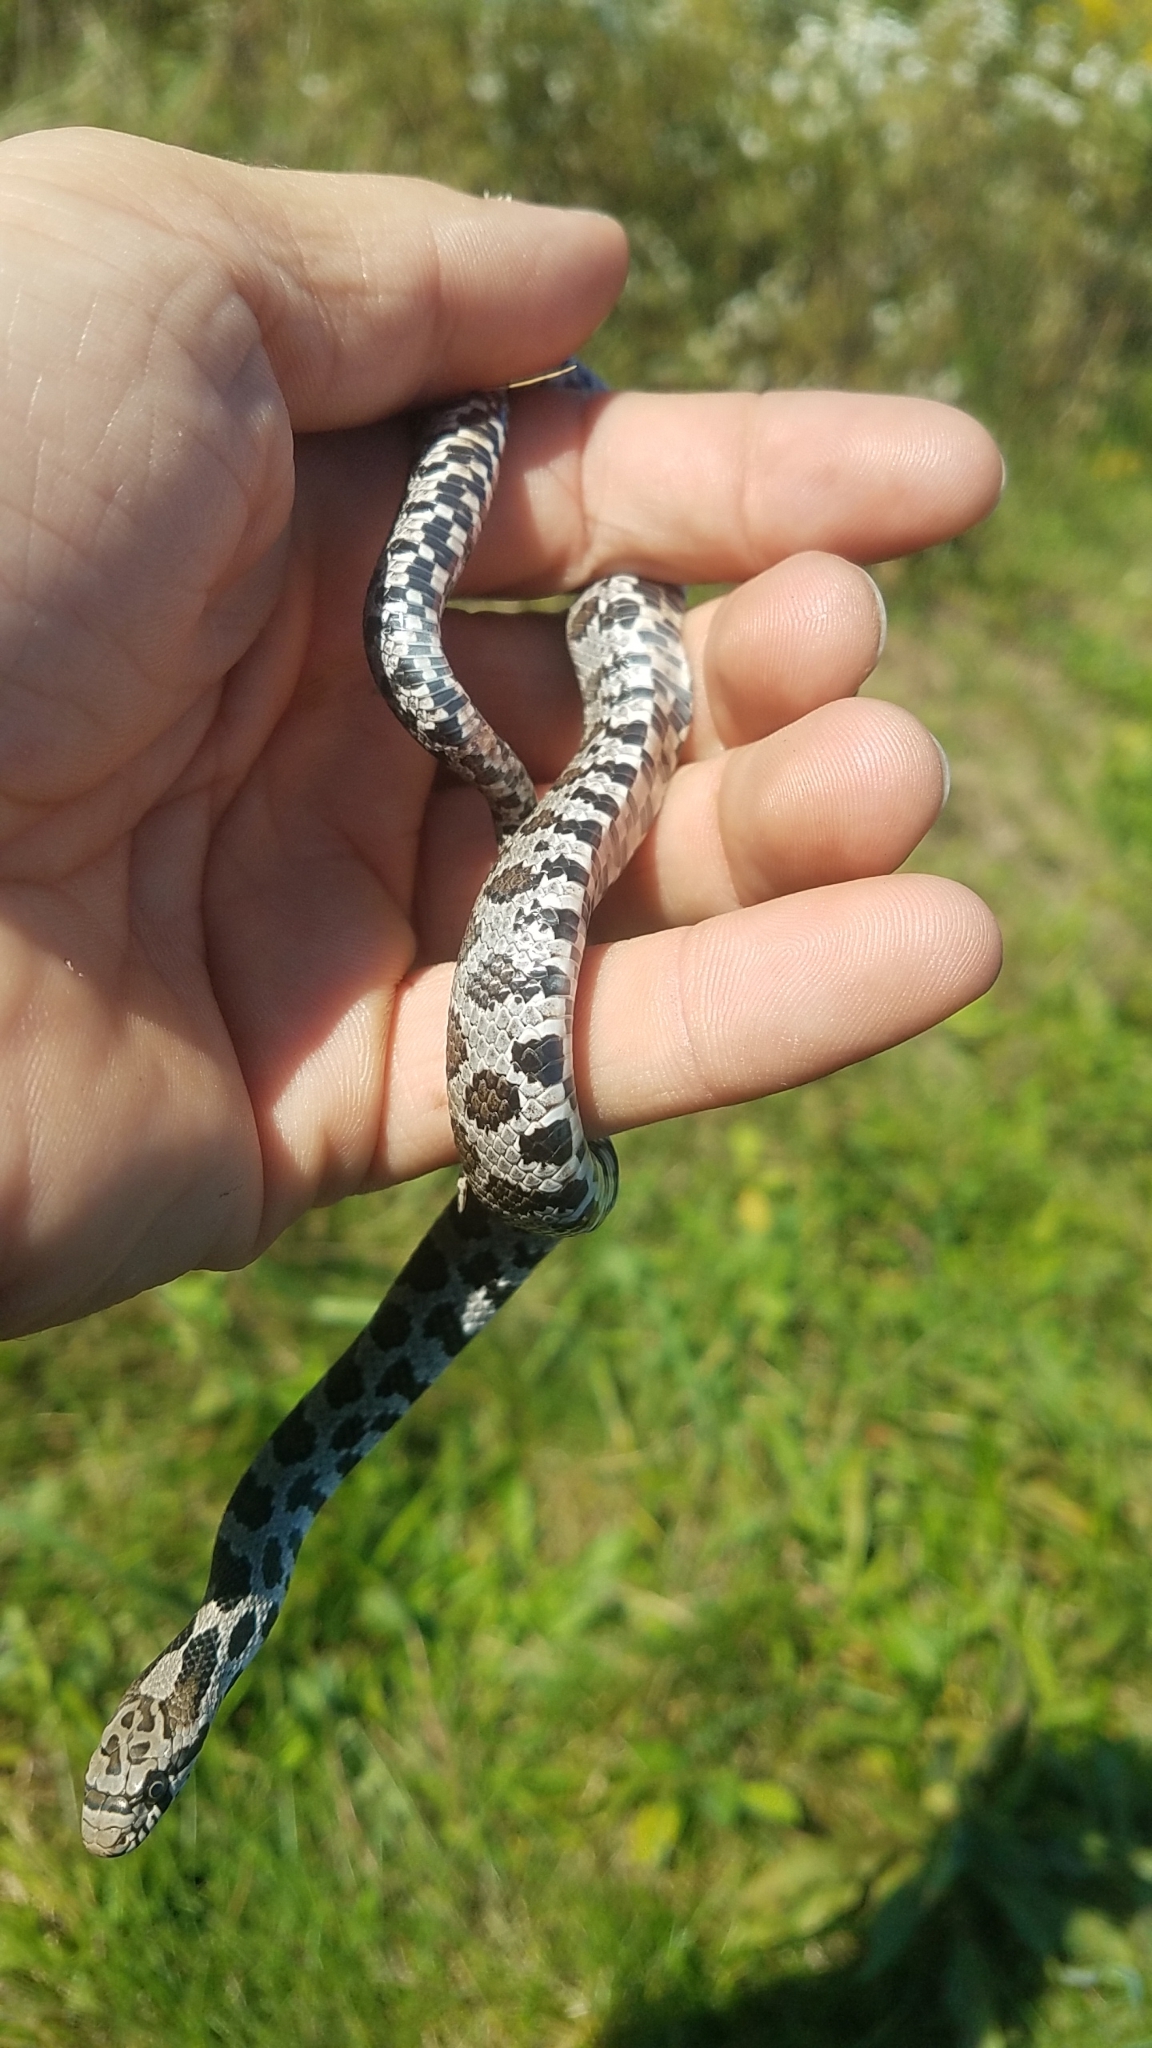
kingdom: Animalia
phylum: Chordata
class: Squamata
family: Colubridae
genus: Pantherophis
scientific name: Pantherophis vulpinus
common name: Eastern fox snake
